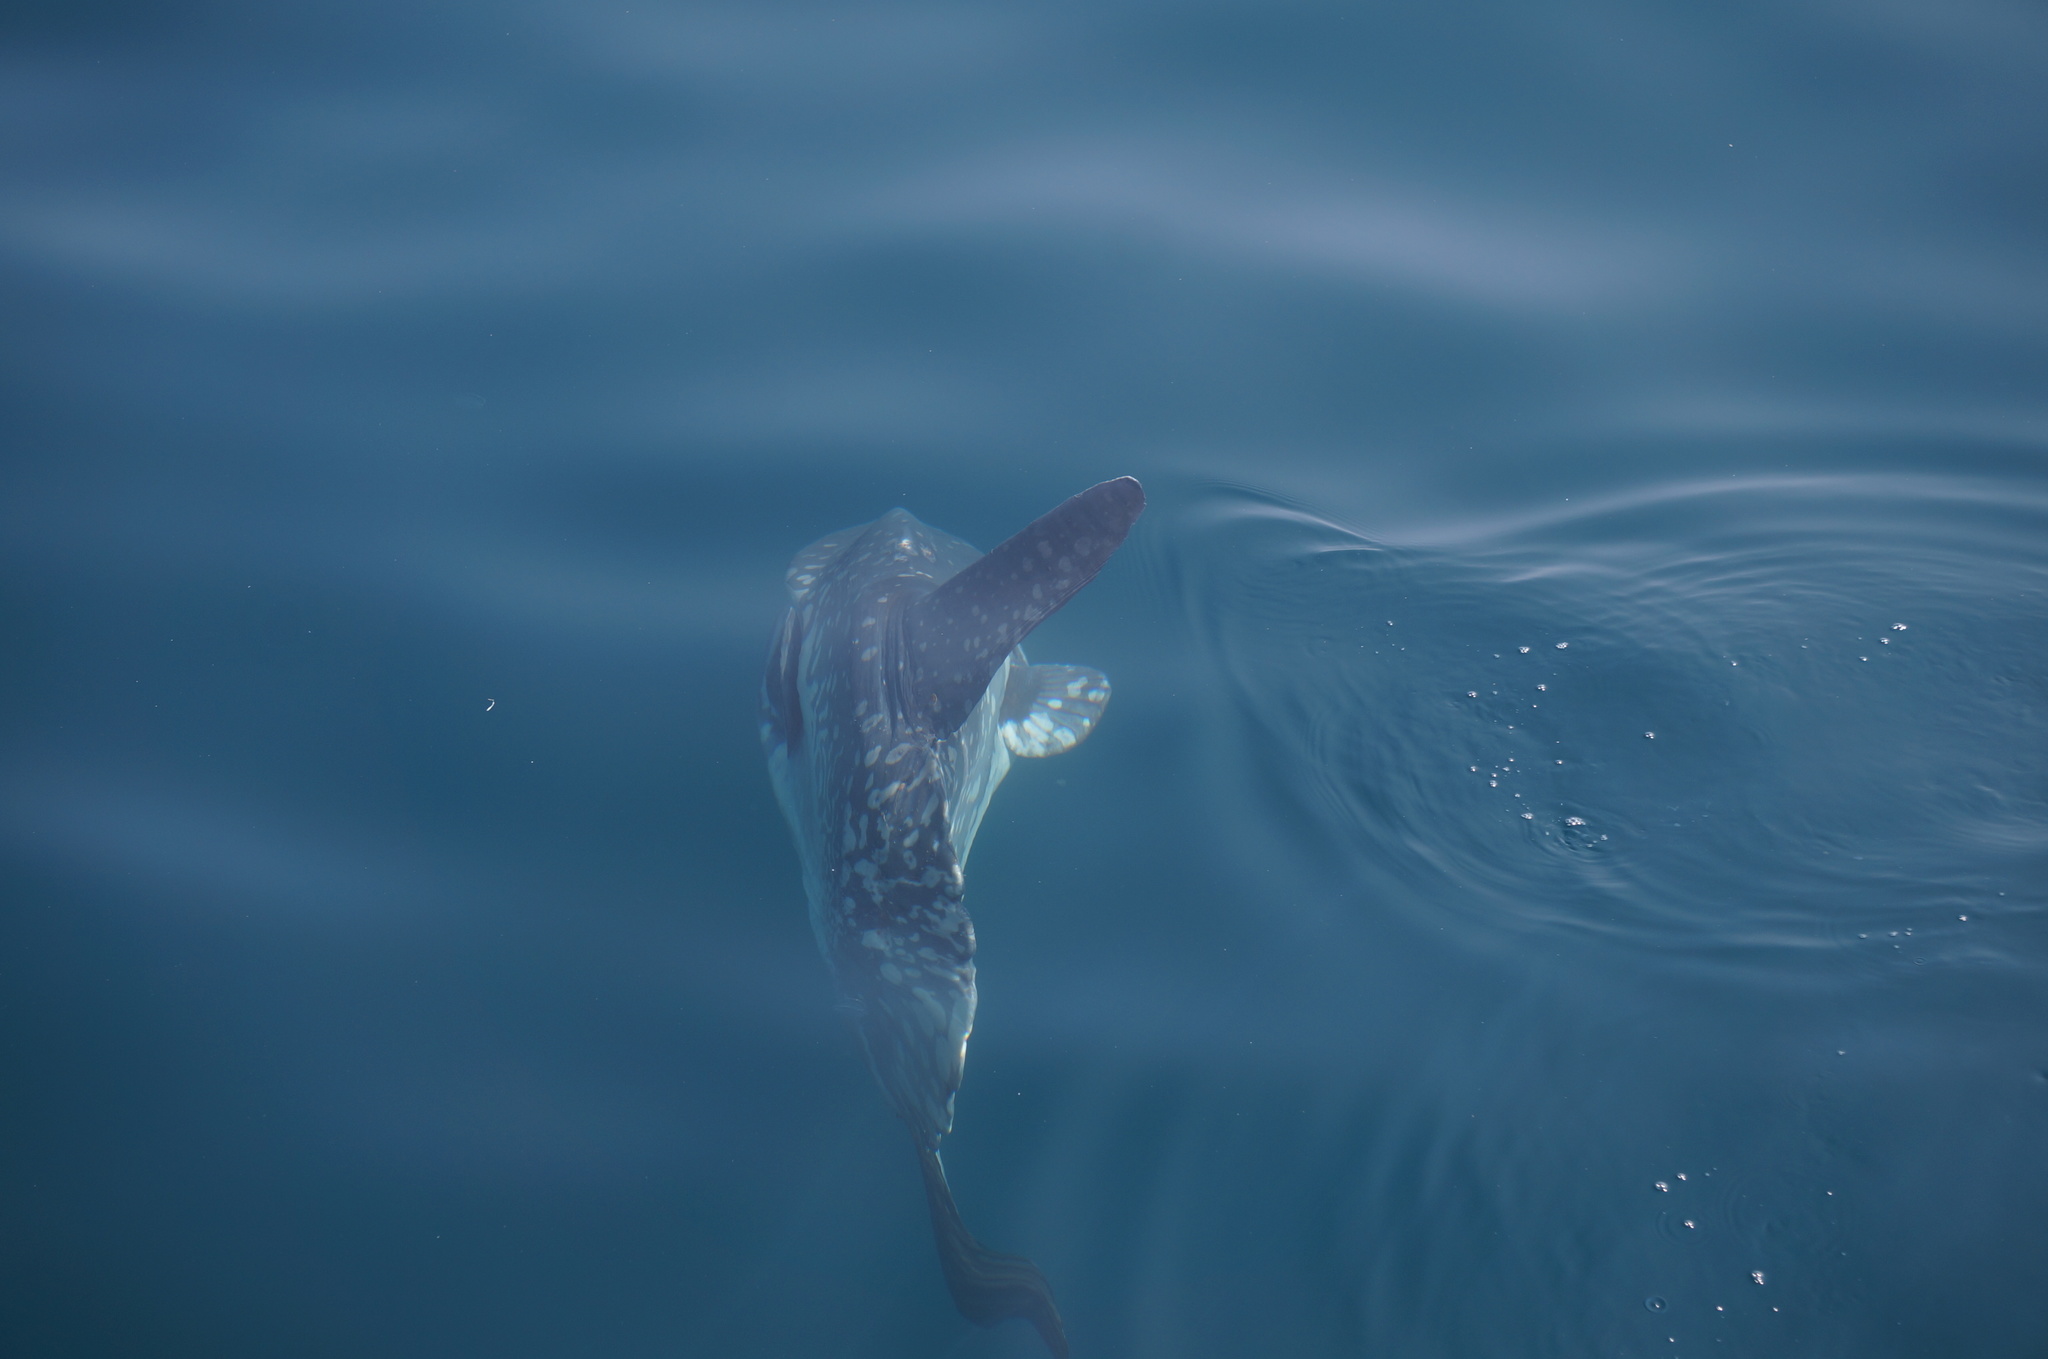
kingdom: Animalia
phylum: Chordata
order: Tetraodontiformes
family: Molidae
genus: Mola
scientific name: Mola mola
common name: Ocean sunfish
